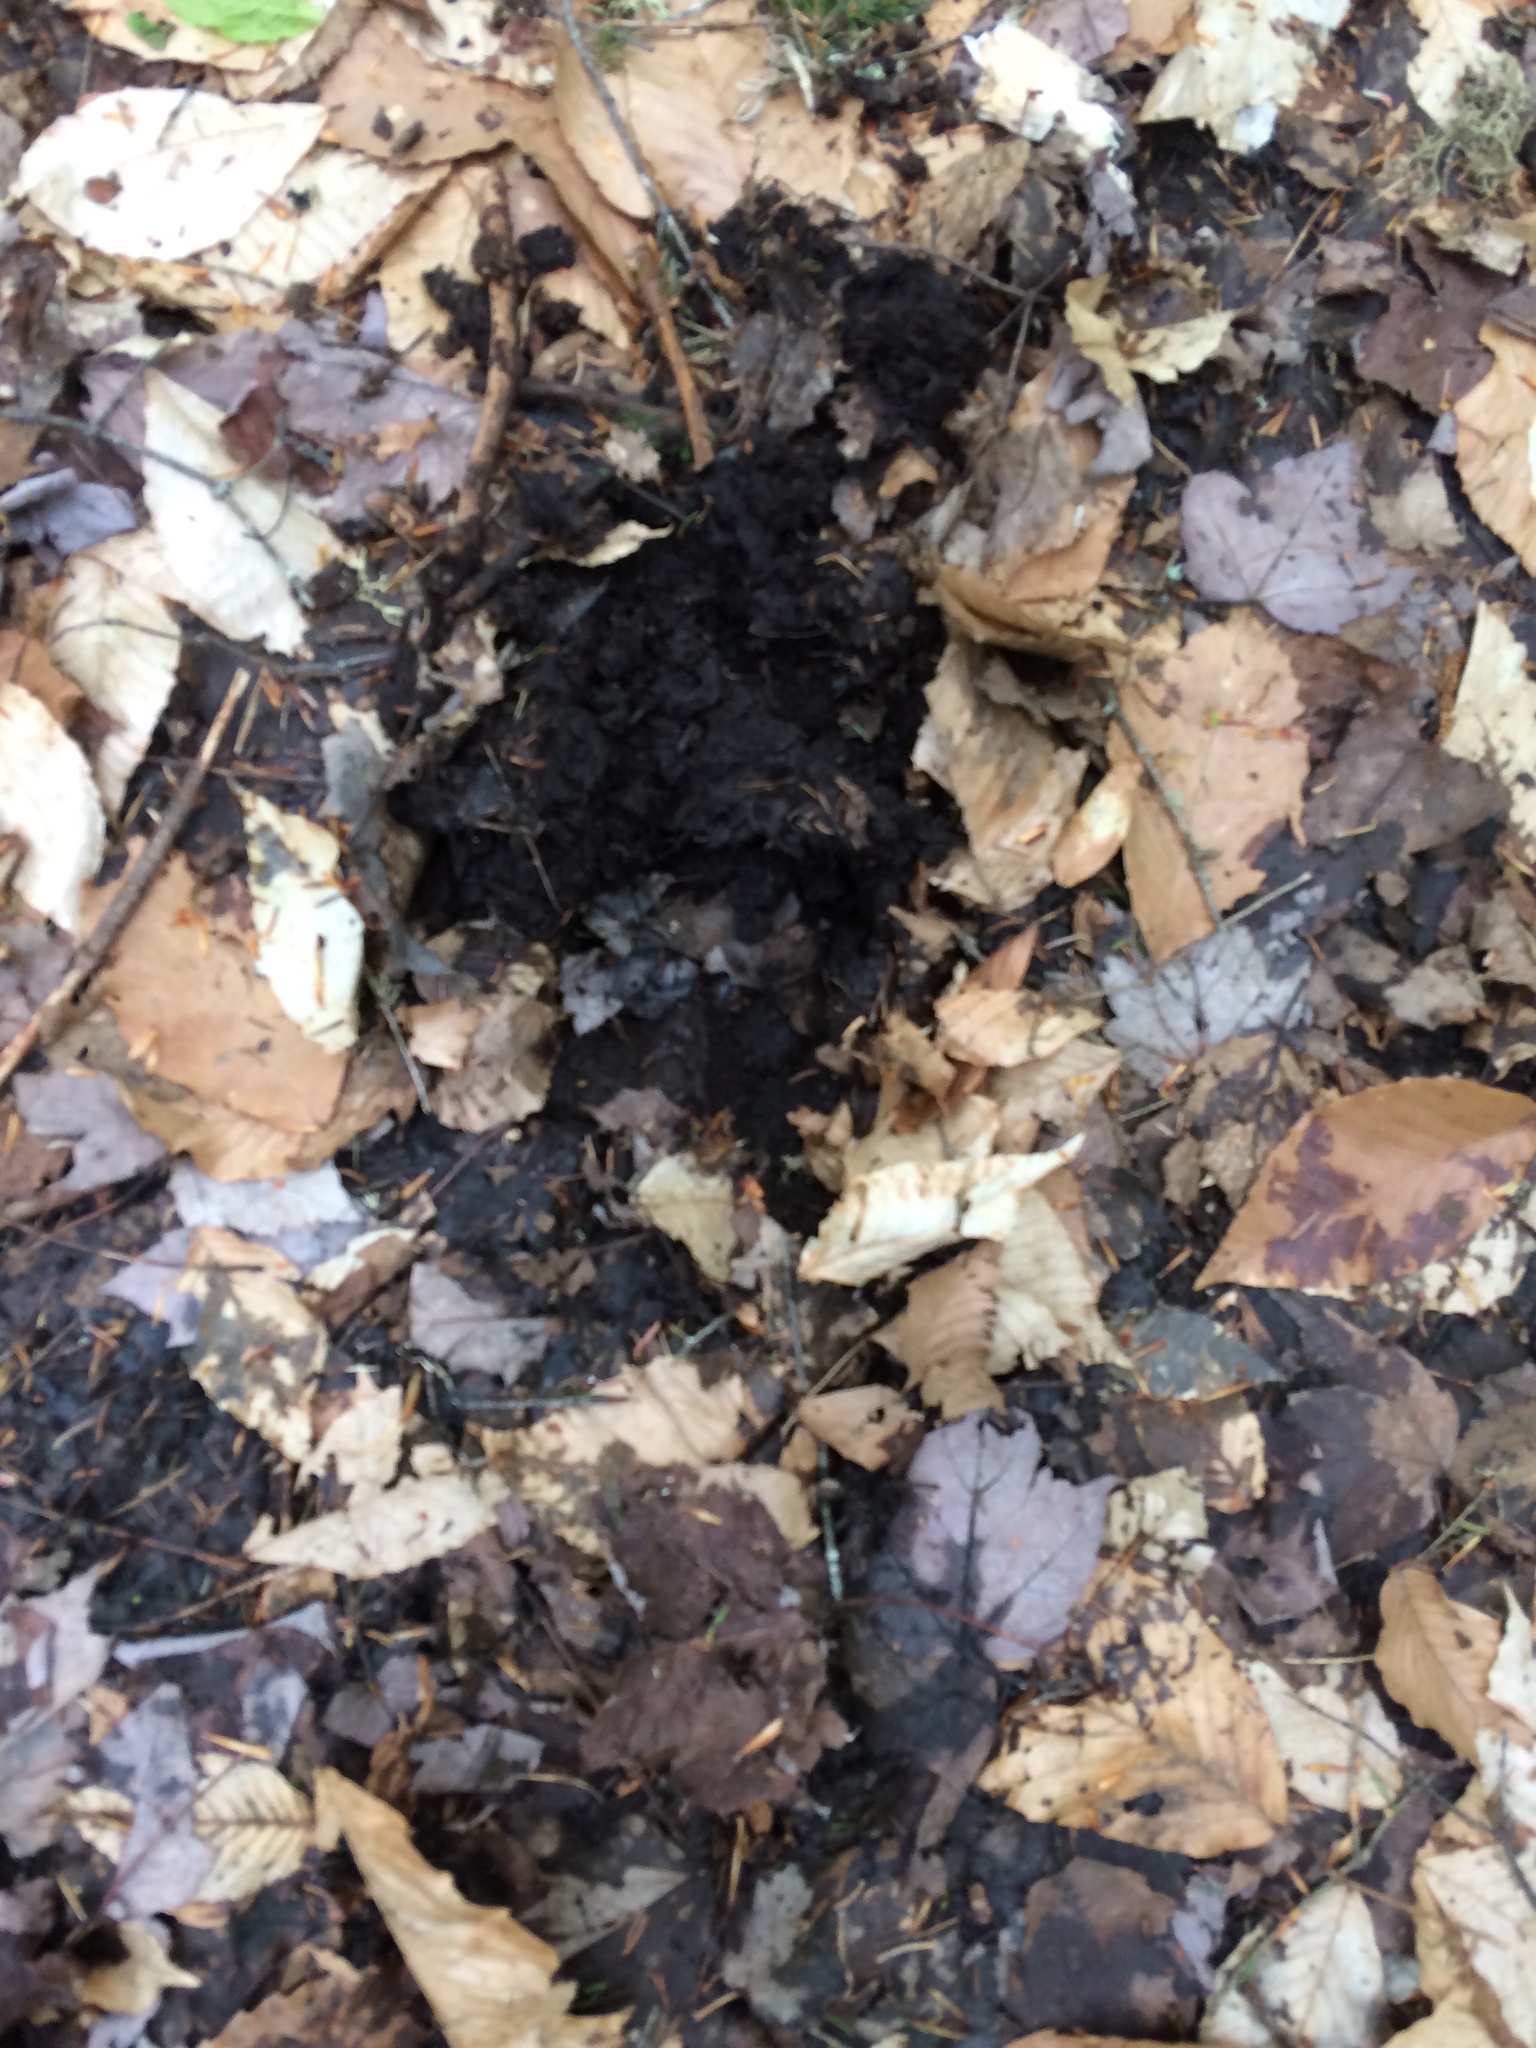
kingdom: Animalia
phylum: Chordata
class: Mammalia
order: Artiodactyla
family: Cervidae
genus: Alces
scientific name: Alces alces
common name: Moose
